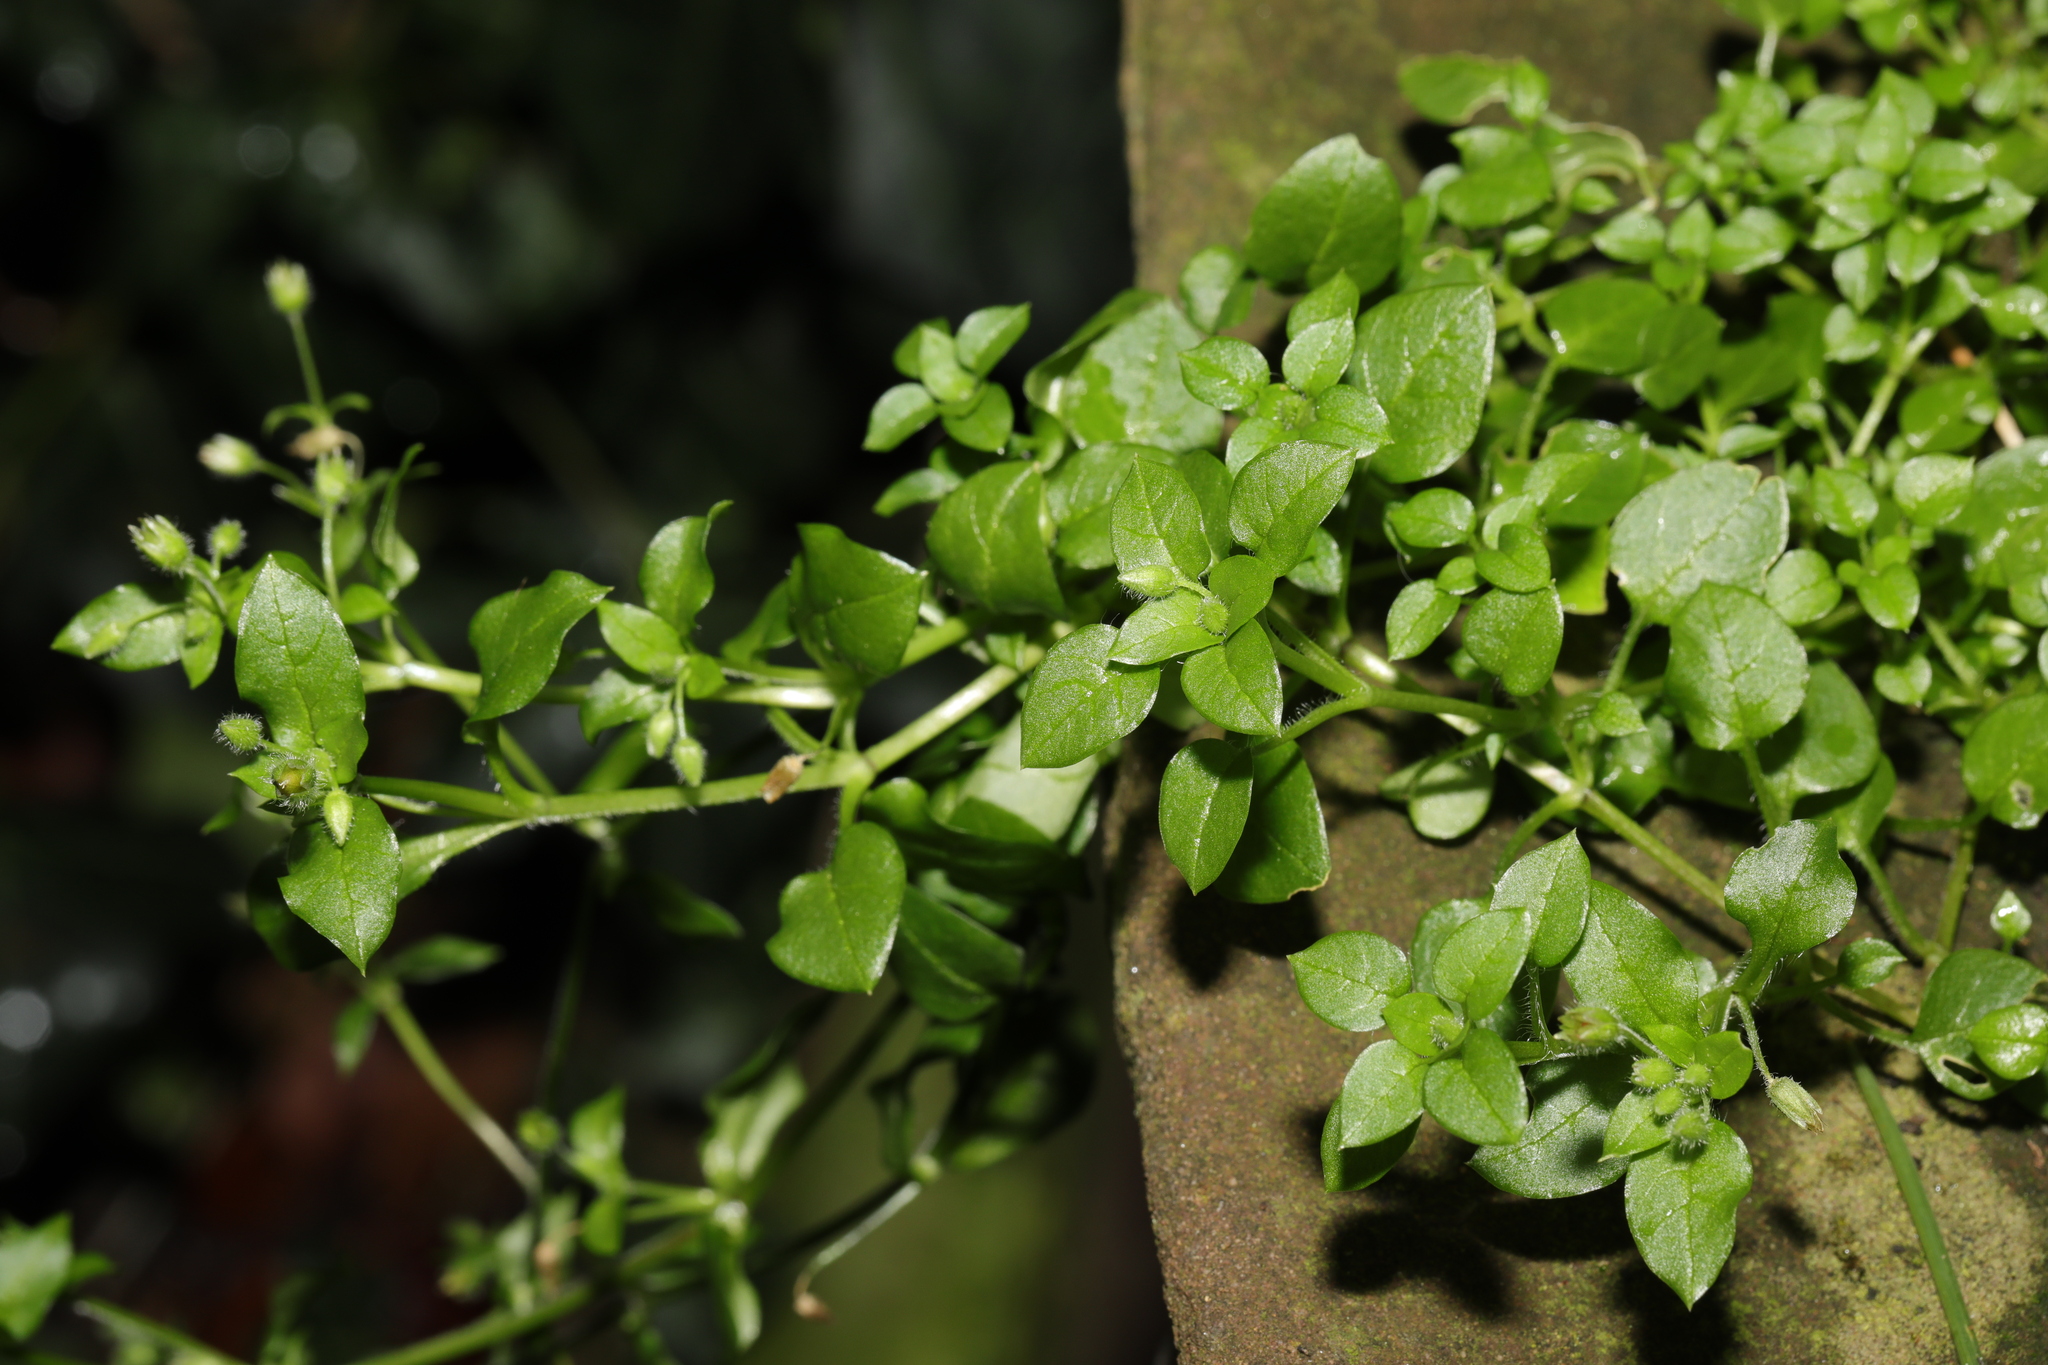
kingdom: Plantae
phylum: Tracheophyta
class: Magnoliopsida
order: Caryophyllales
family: Caryophyllaceae
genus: Stellaria
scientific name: Stellaria media
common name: Common chickweed
